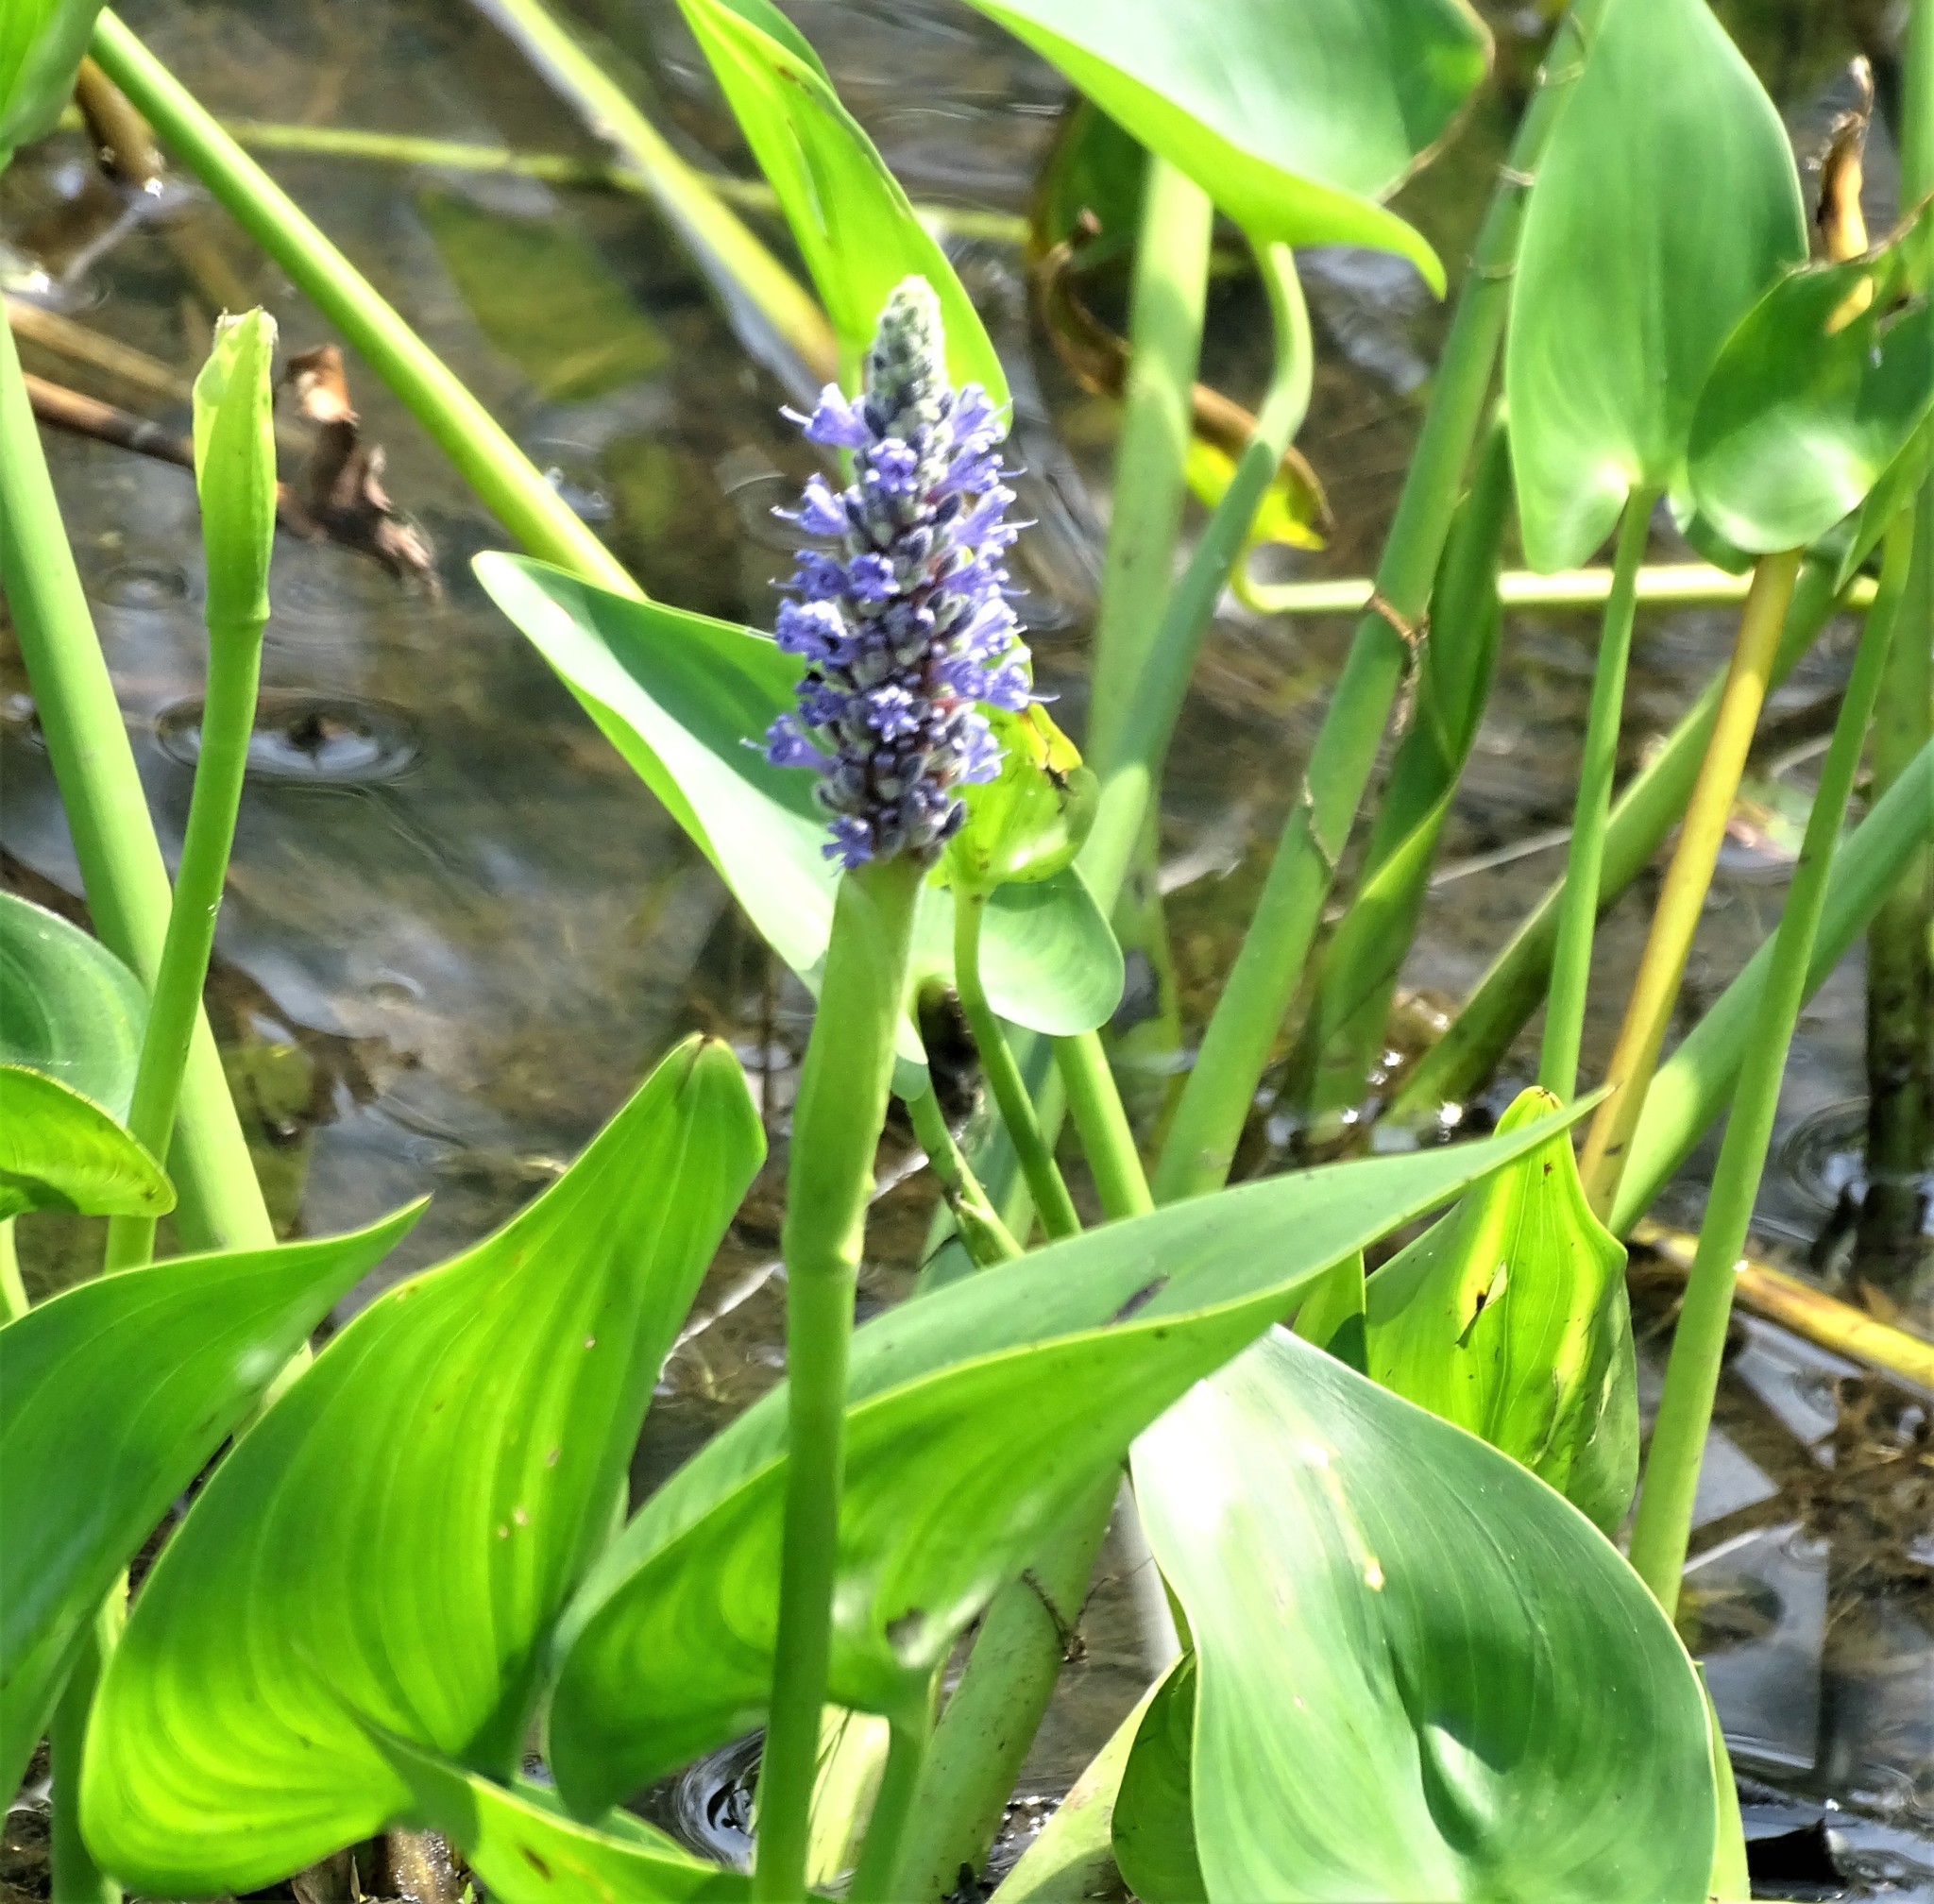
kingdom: Plantae
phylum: Tracheophyta
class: Liliopsida
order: Commelinales
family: Pontederiaceae
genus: Pontederia
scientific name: Pontederia cordata
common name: Pickerelweed
